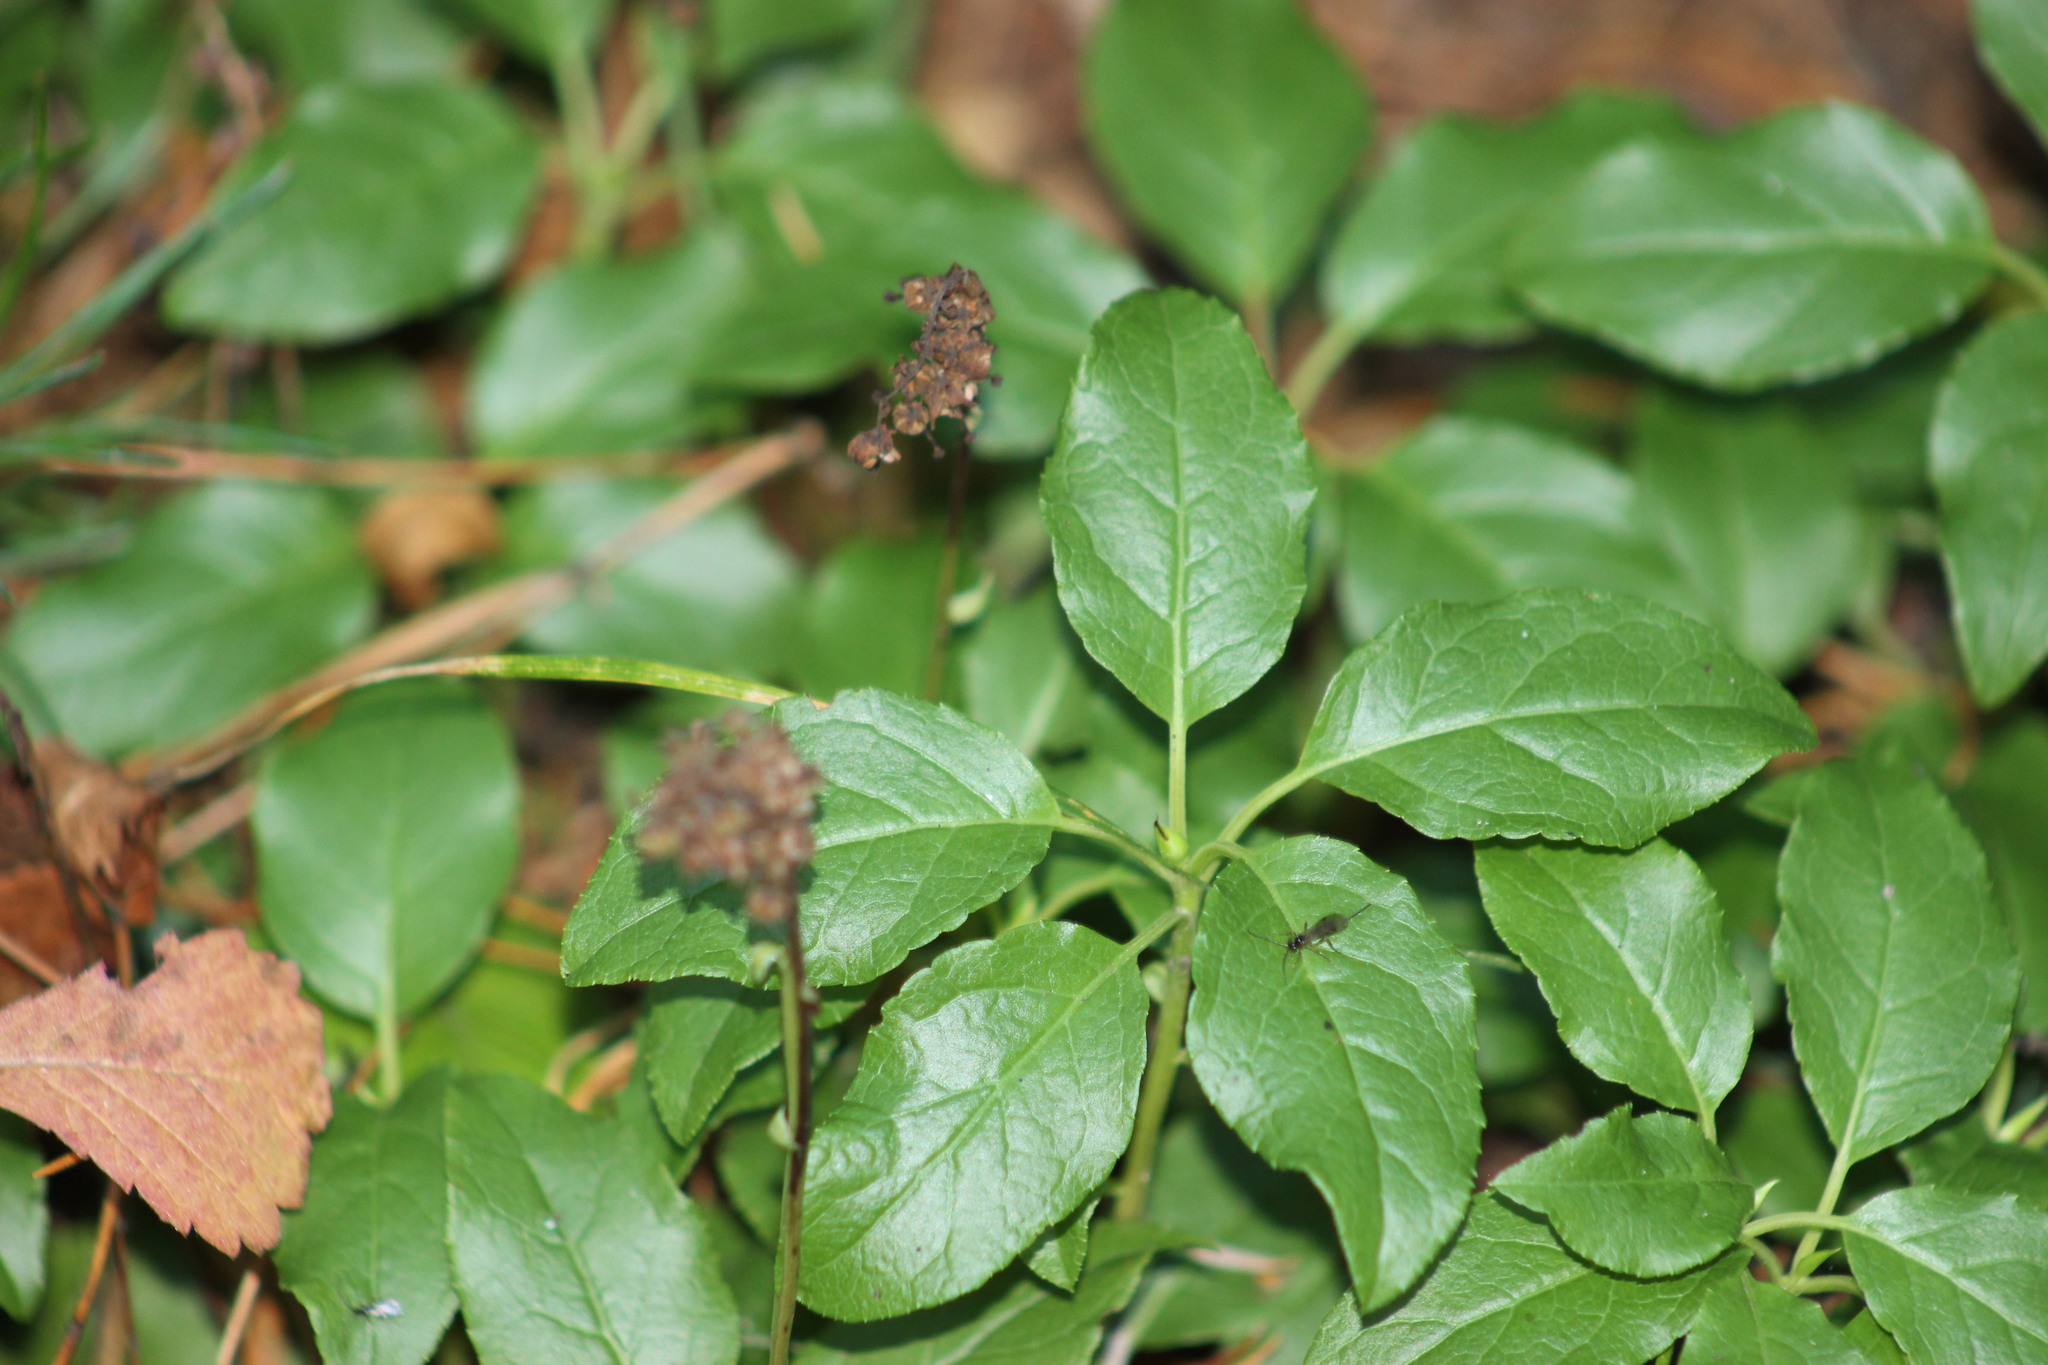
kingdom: Plantae
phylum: Tracheophyta
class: Magnoliopsida
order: Ericales
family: Ericaceae
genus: Orthilia
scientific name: Orthilia secunda
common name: One-sided orthilia
